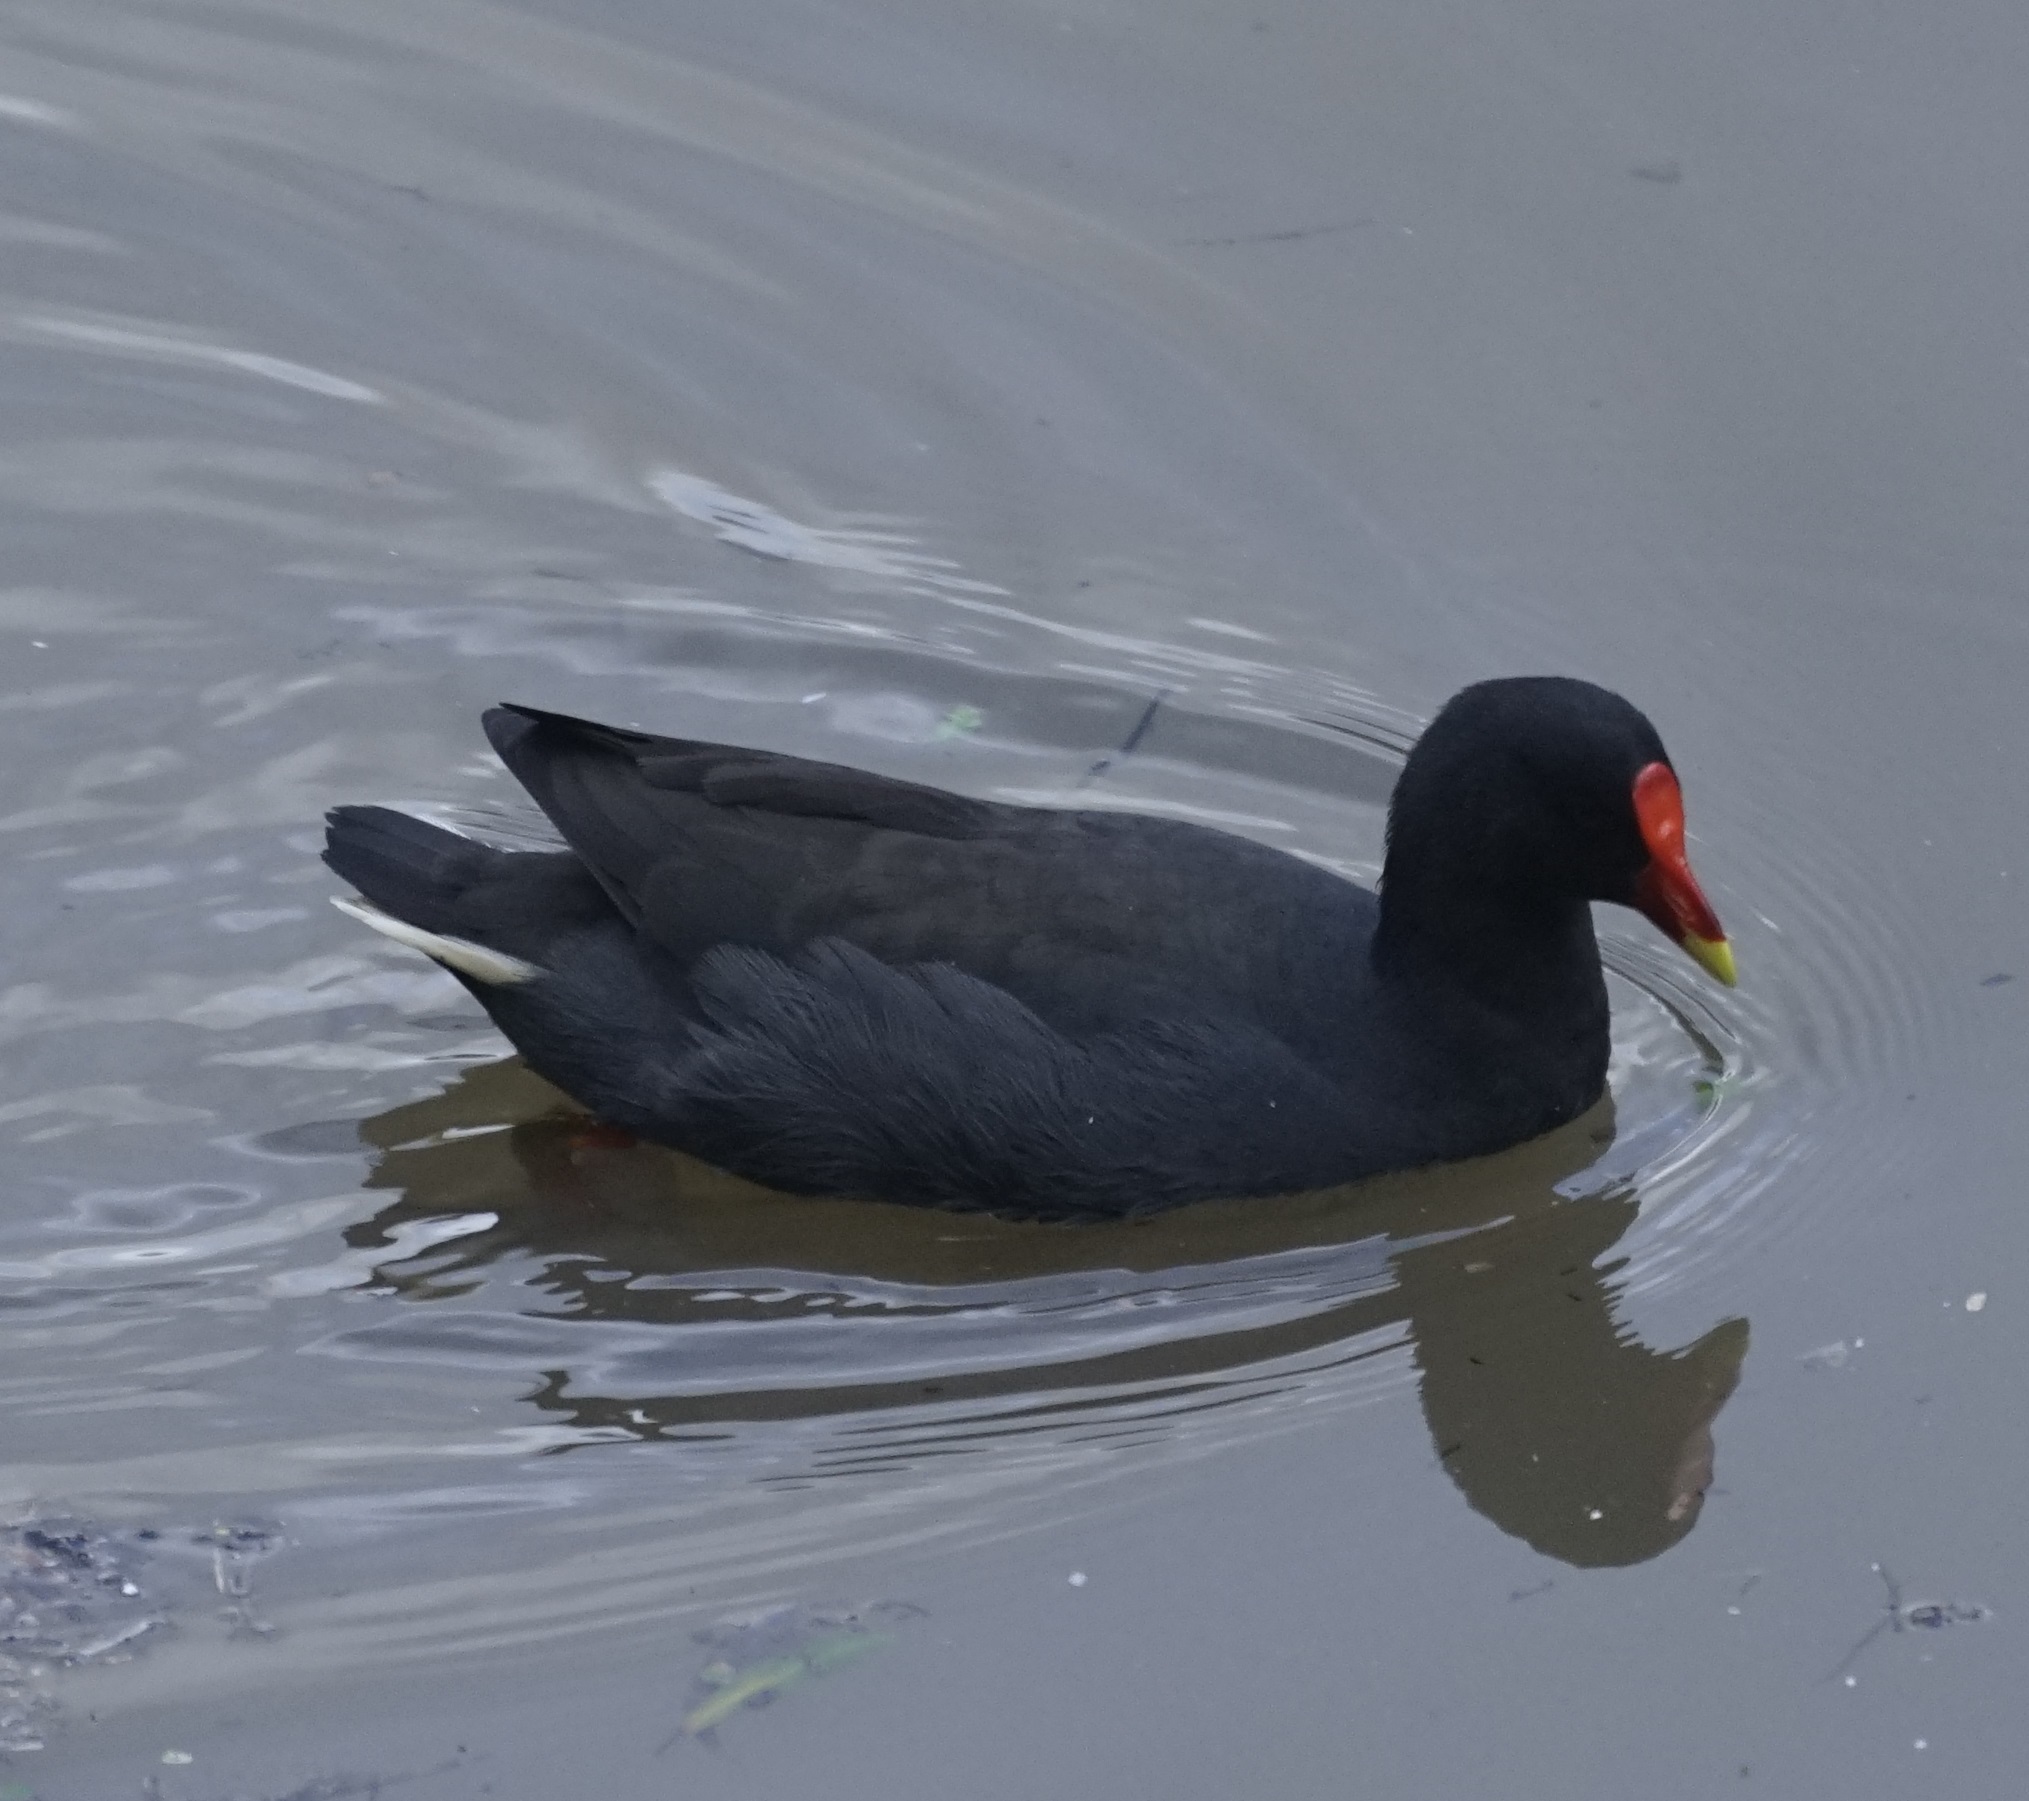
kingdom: Animalia
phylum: Chordata
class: Aves
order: Gruiformes
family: Rallidae
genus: Gallinula
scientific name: Gallinula tenebrosa
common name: Dusky moorhen
